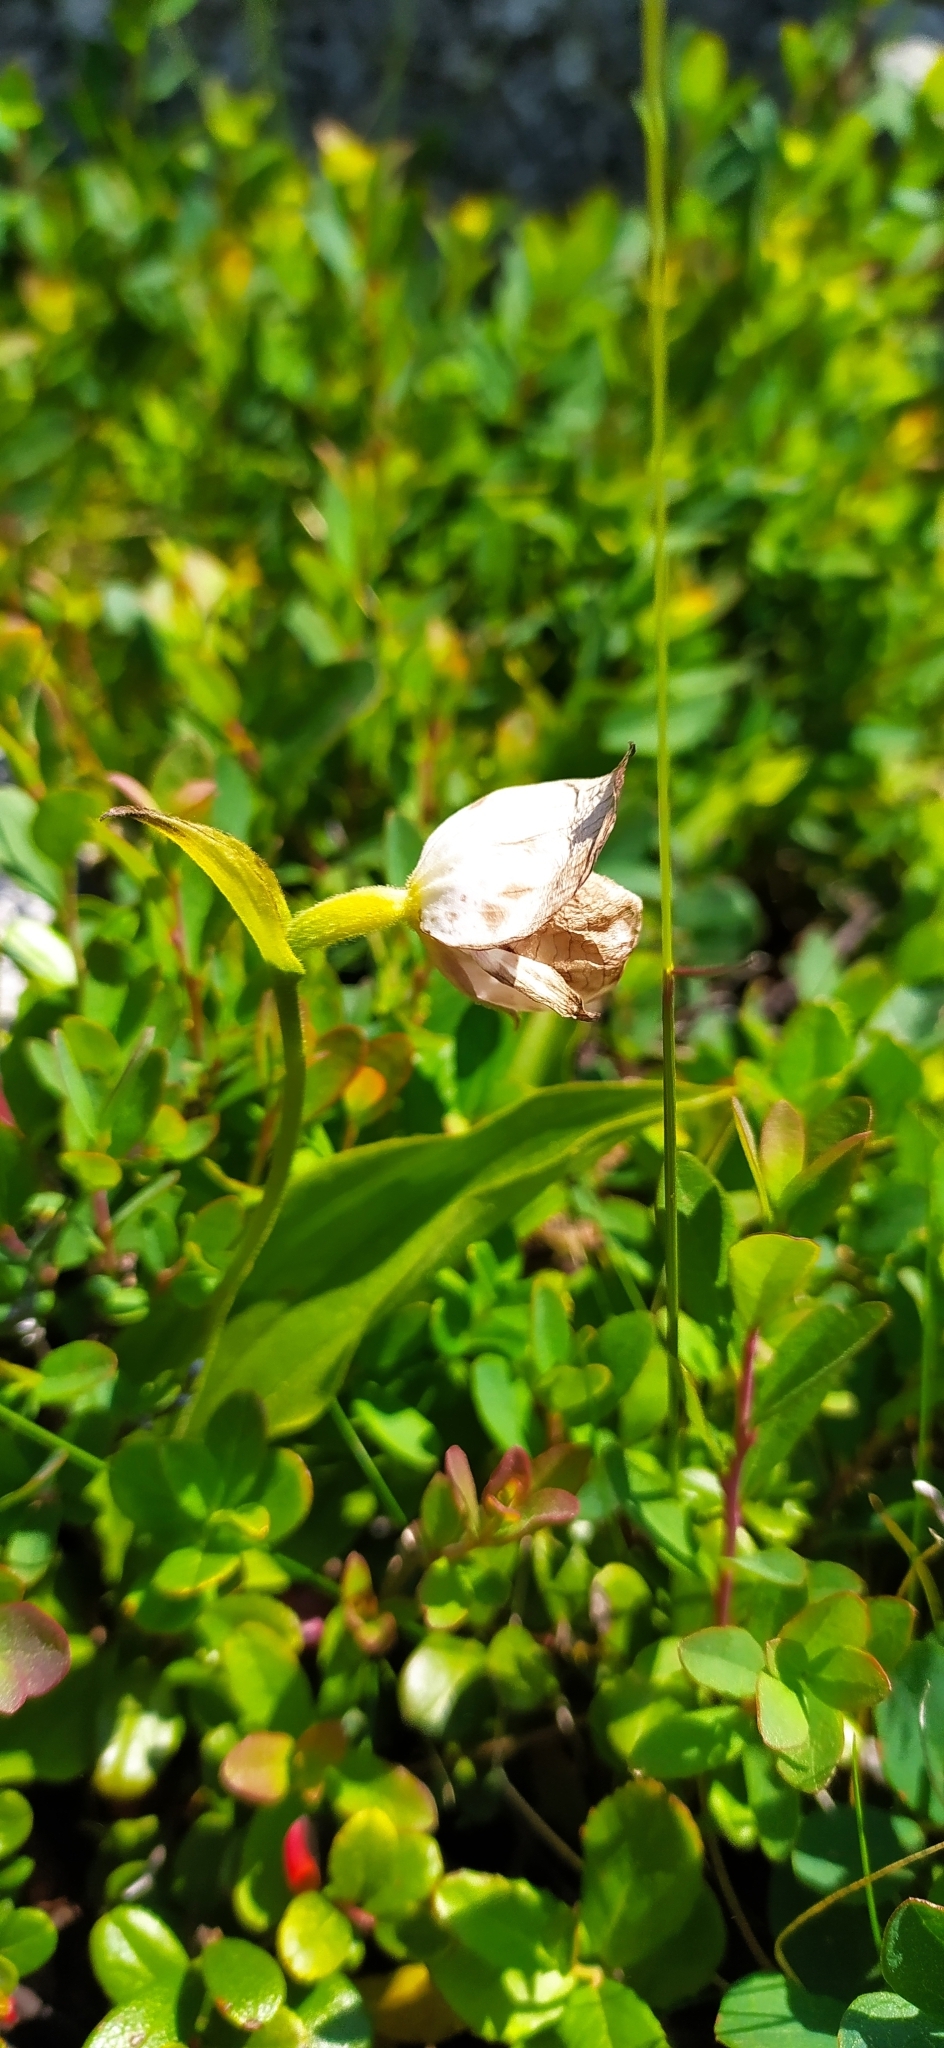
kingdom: Plantae
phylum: Tracheophyta
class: Liliopsida
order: Asparagales
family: Orchidaceae
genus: Cypripedium
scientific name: Cypripedium guttatum
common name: Pink lady slipper
